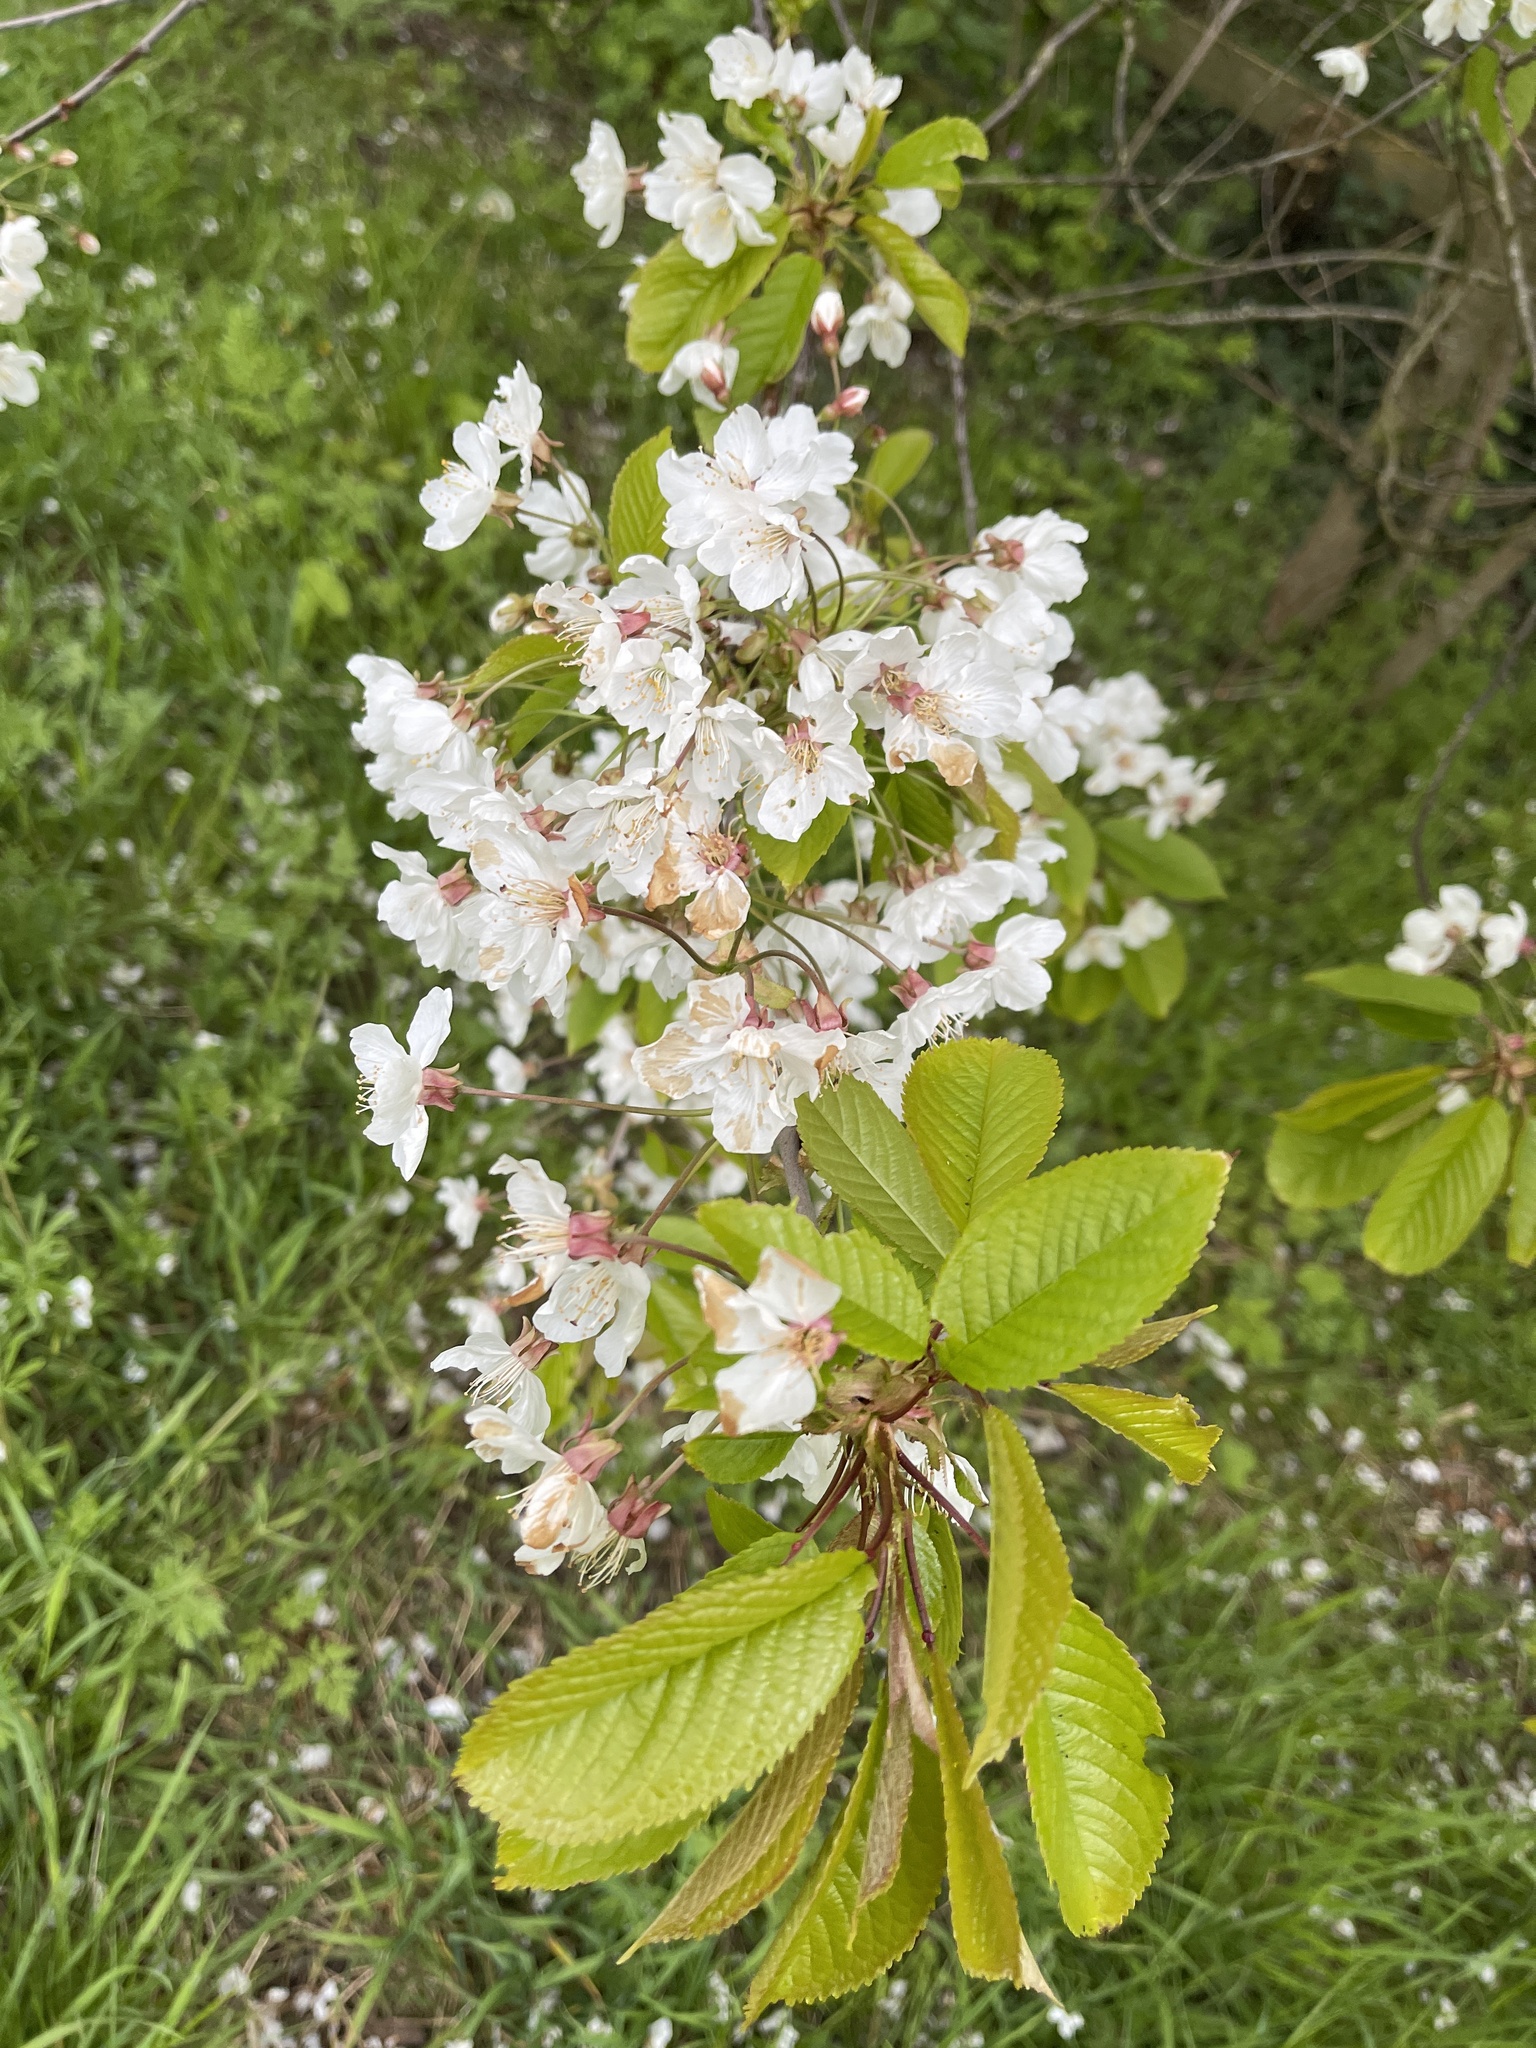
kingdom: Plantae
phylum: Tracheophyta
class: Magnoliopsida
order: Rosales
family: Rosaceae
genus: Prunus
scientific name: Prunus avium
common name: Sweet cherry
